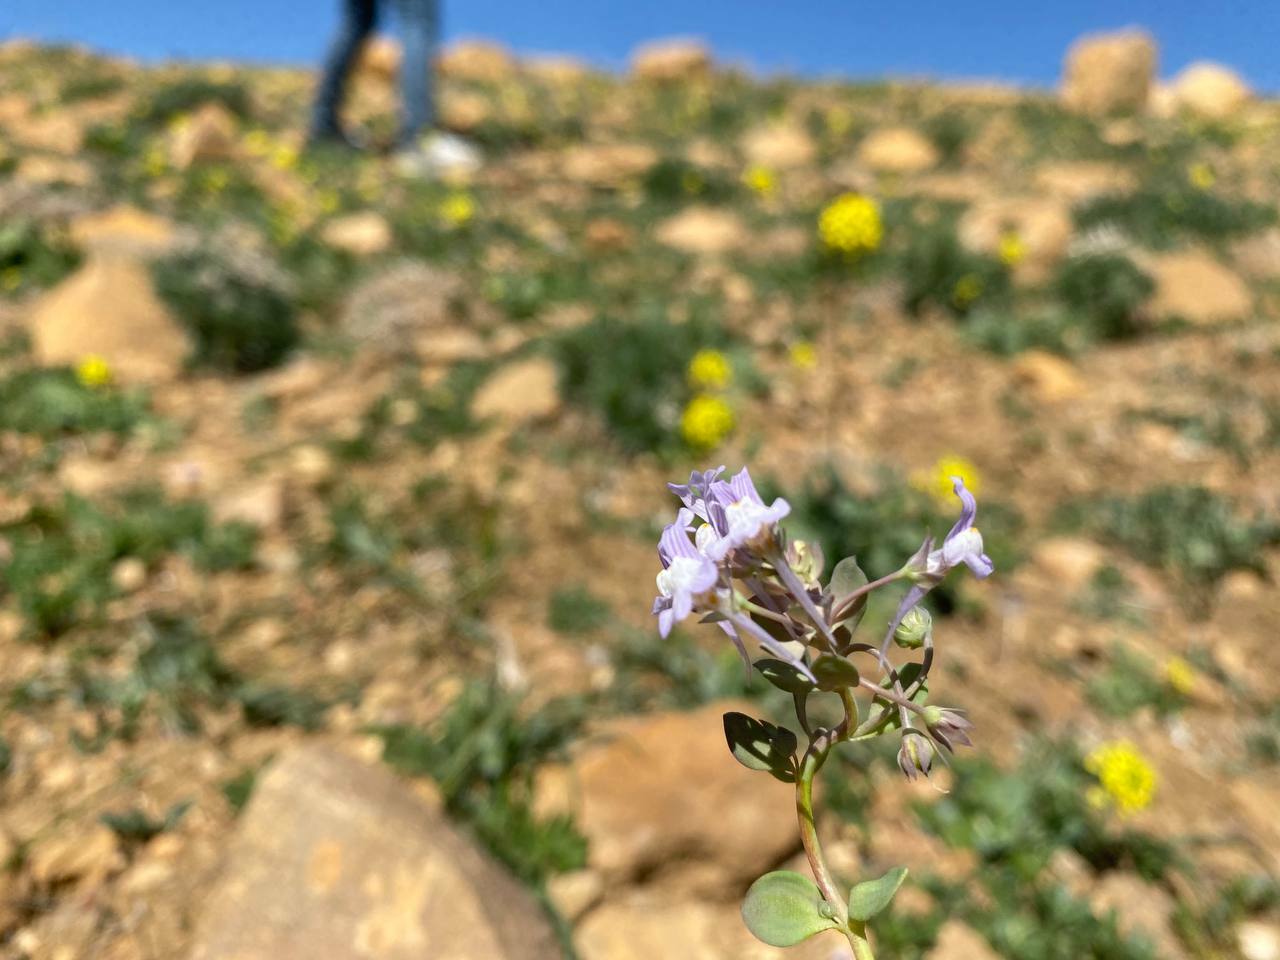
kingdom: Plantae
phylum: Tracheophyta
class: Magnoliopsida
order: Lamiales
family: Plantaginaceae
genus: Linaria
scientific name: Linaria reflexa
